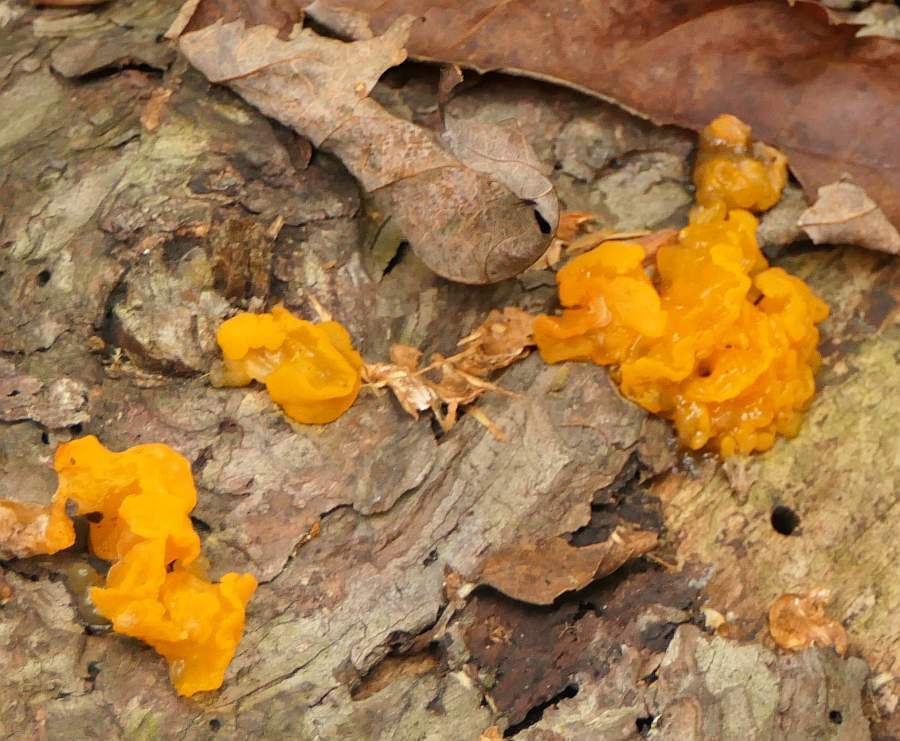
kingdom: Fungi
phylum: Basidiomycota
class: Dacrymycetes
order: Dacrymycetales
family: Dacrymycetaceae
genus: Dacrymyces
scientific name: Dacrymyces chrysospermus
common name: Orange jelly spot
